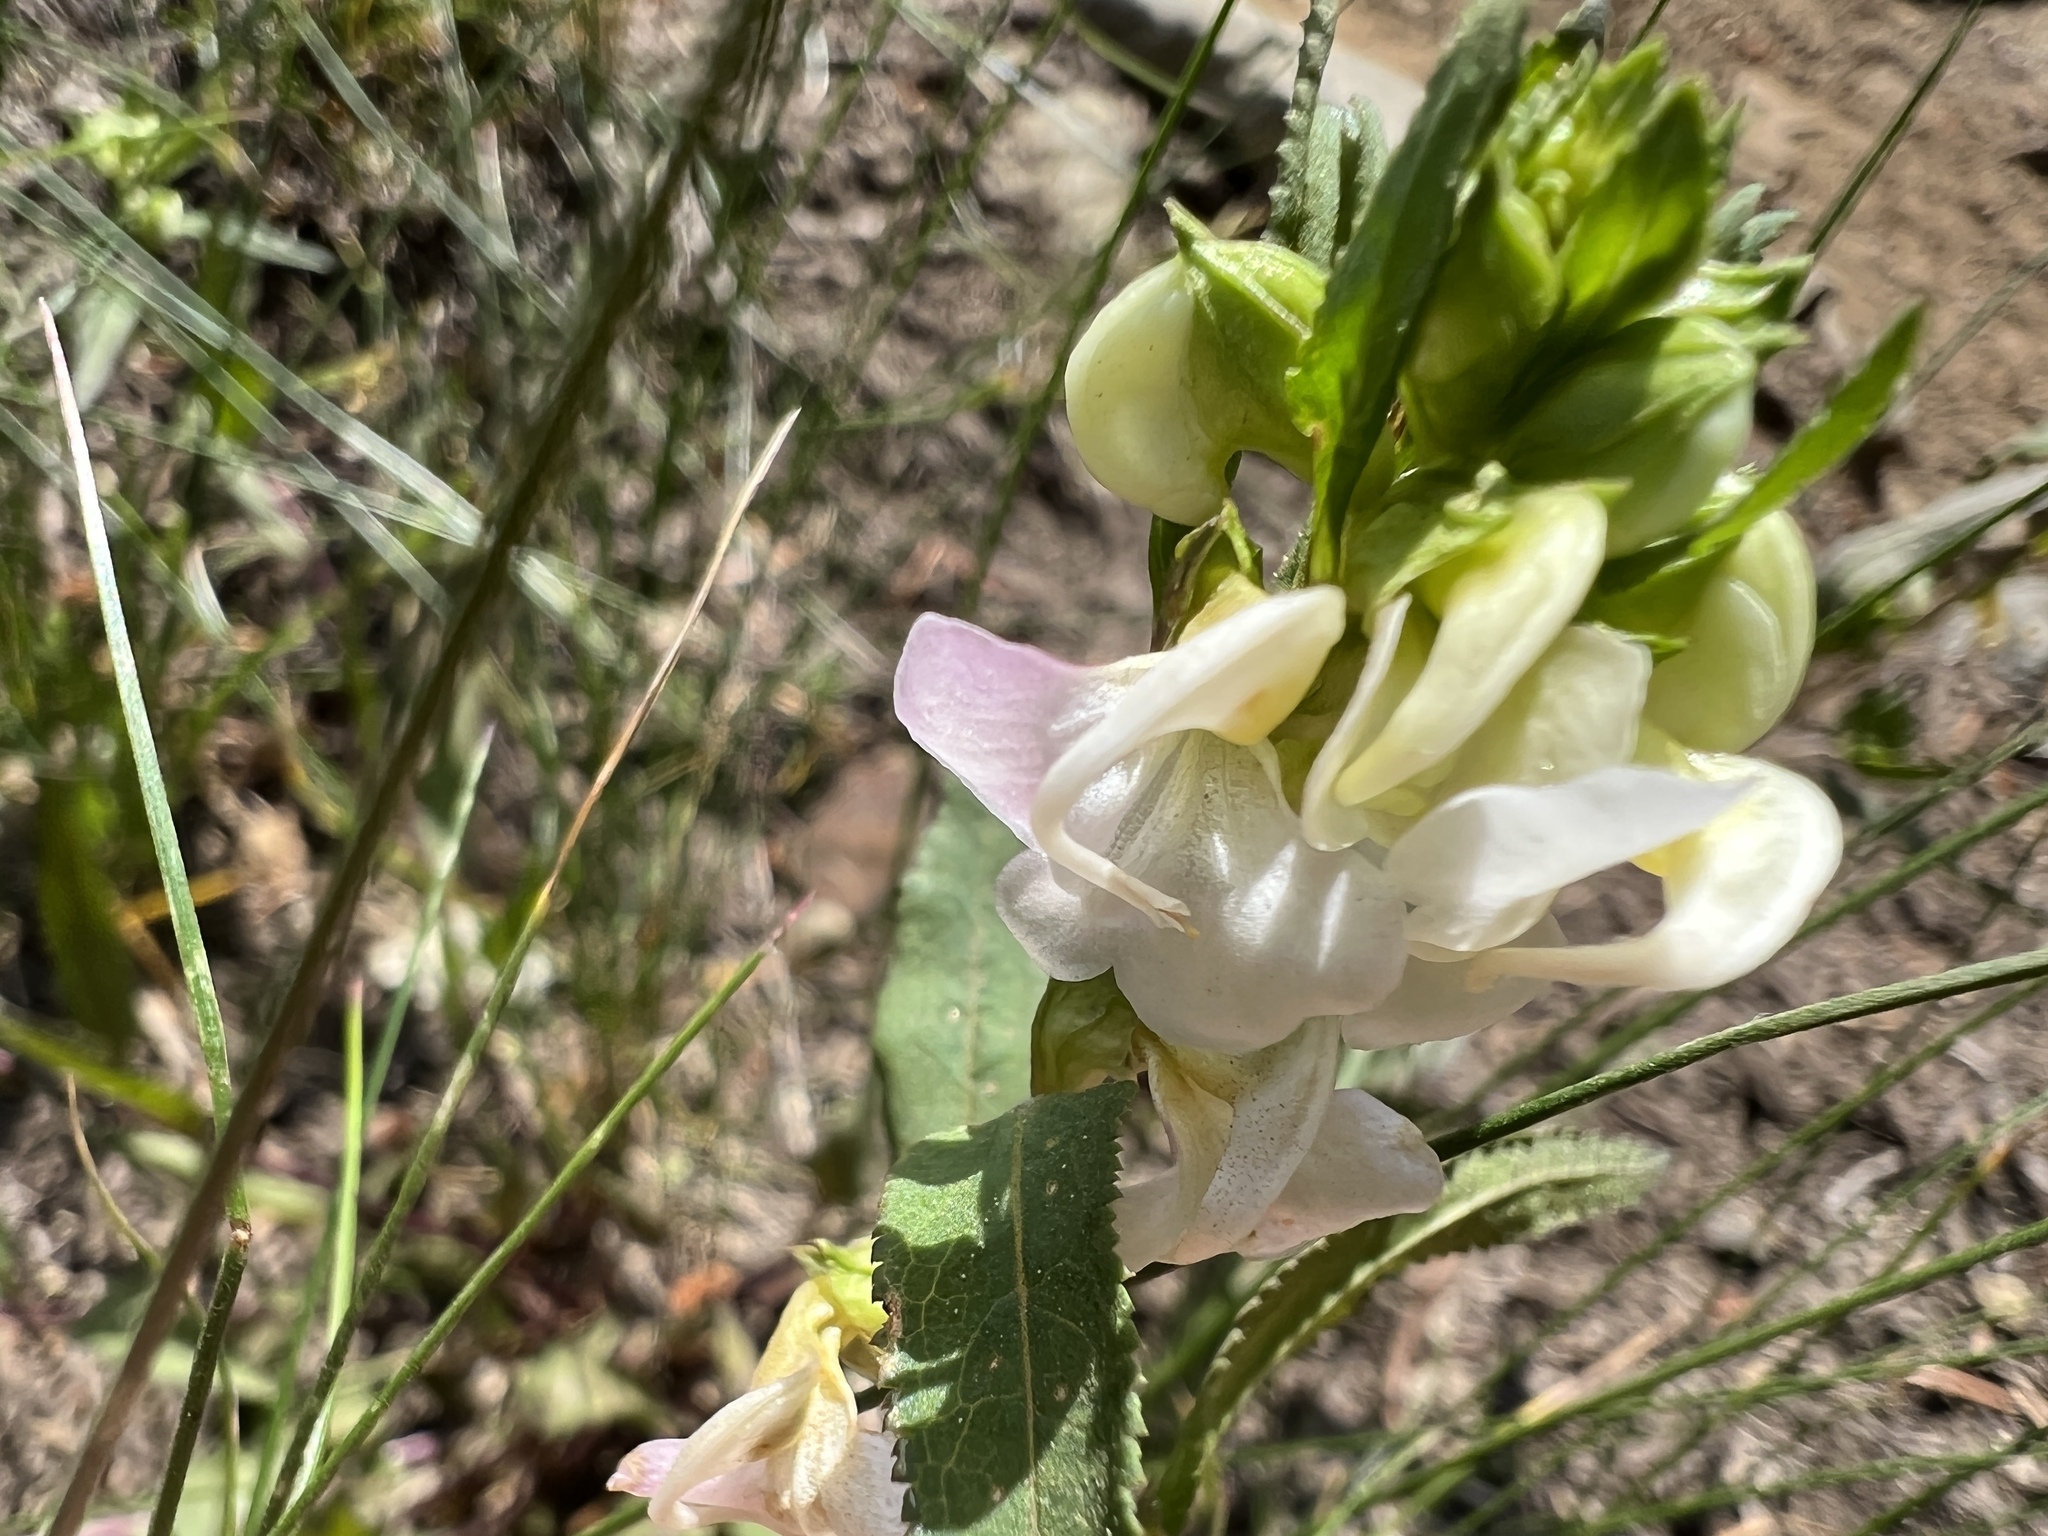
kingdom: Plantae
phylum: Tracheophyta
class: Magnoliopsida
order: Lamiales
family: Orobanchaceae
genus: Pedicularis
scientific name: Pedicularis racemosa
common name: Leafy lousewort
